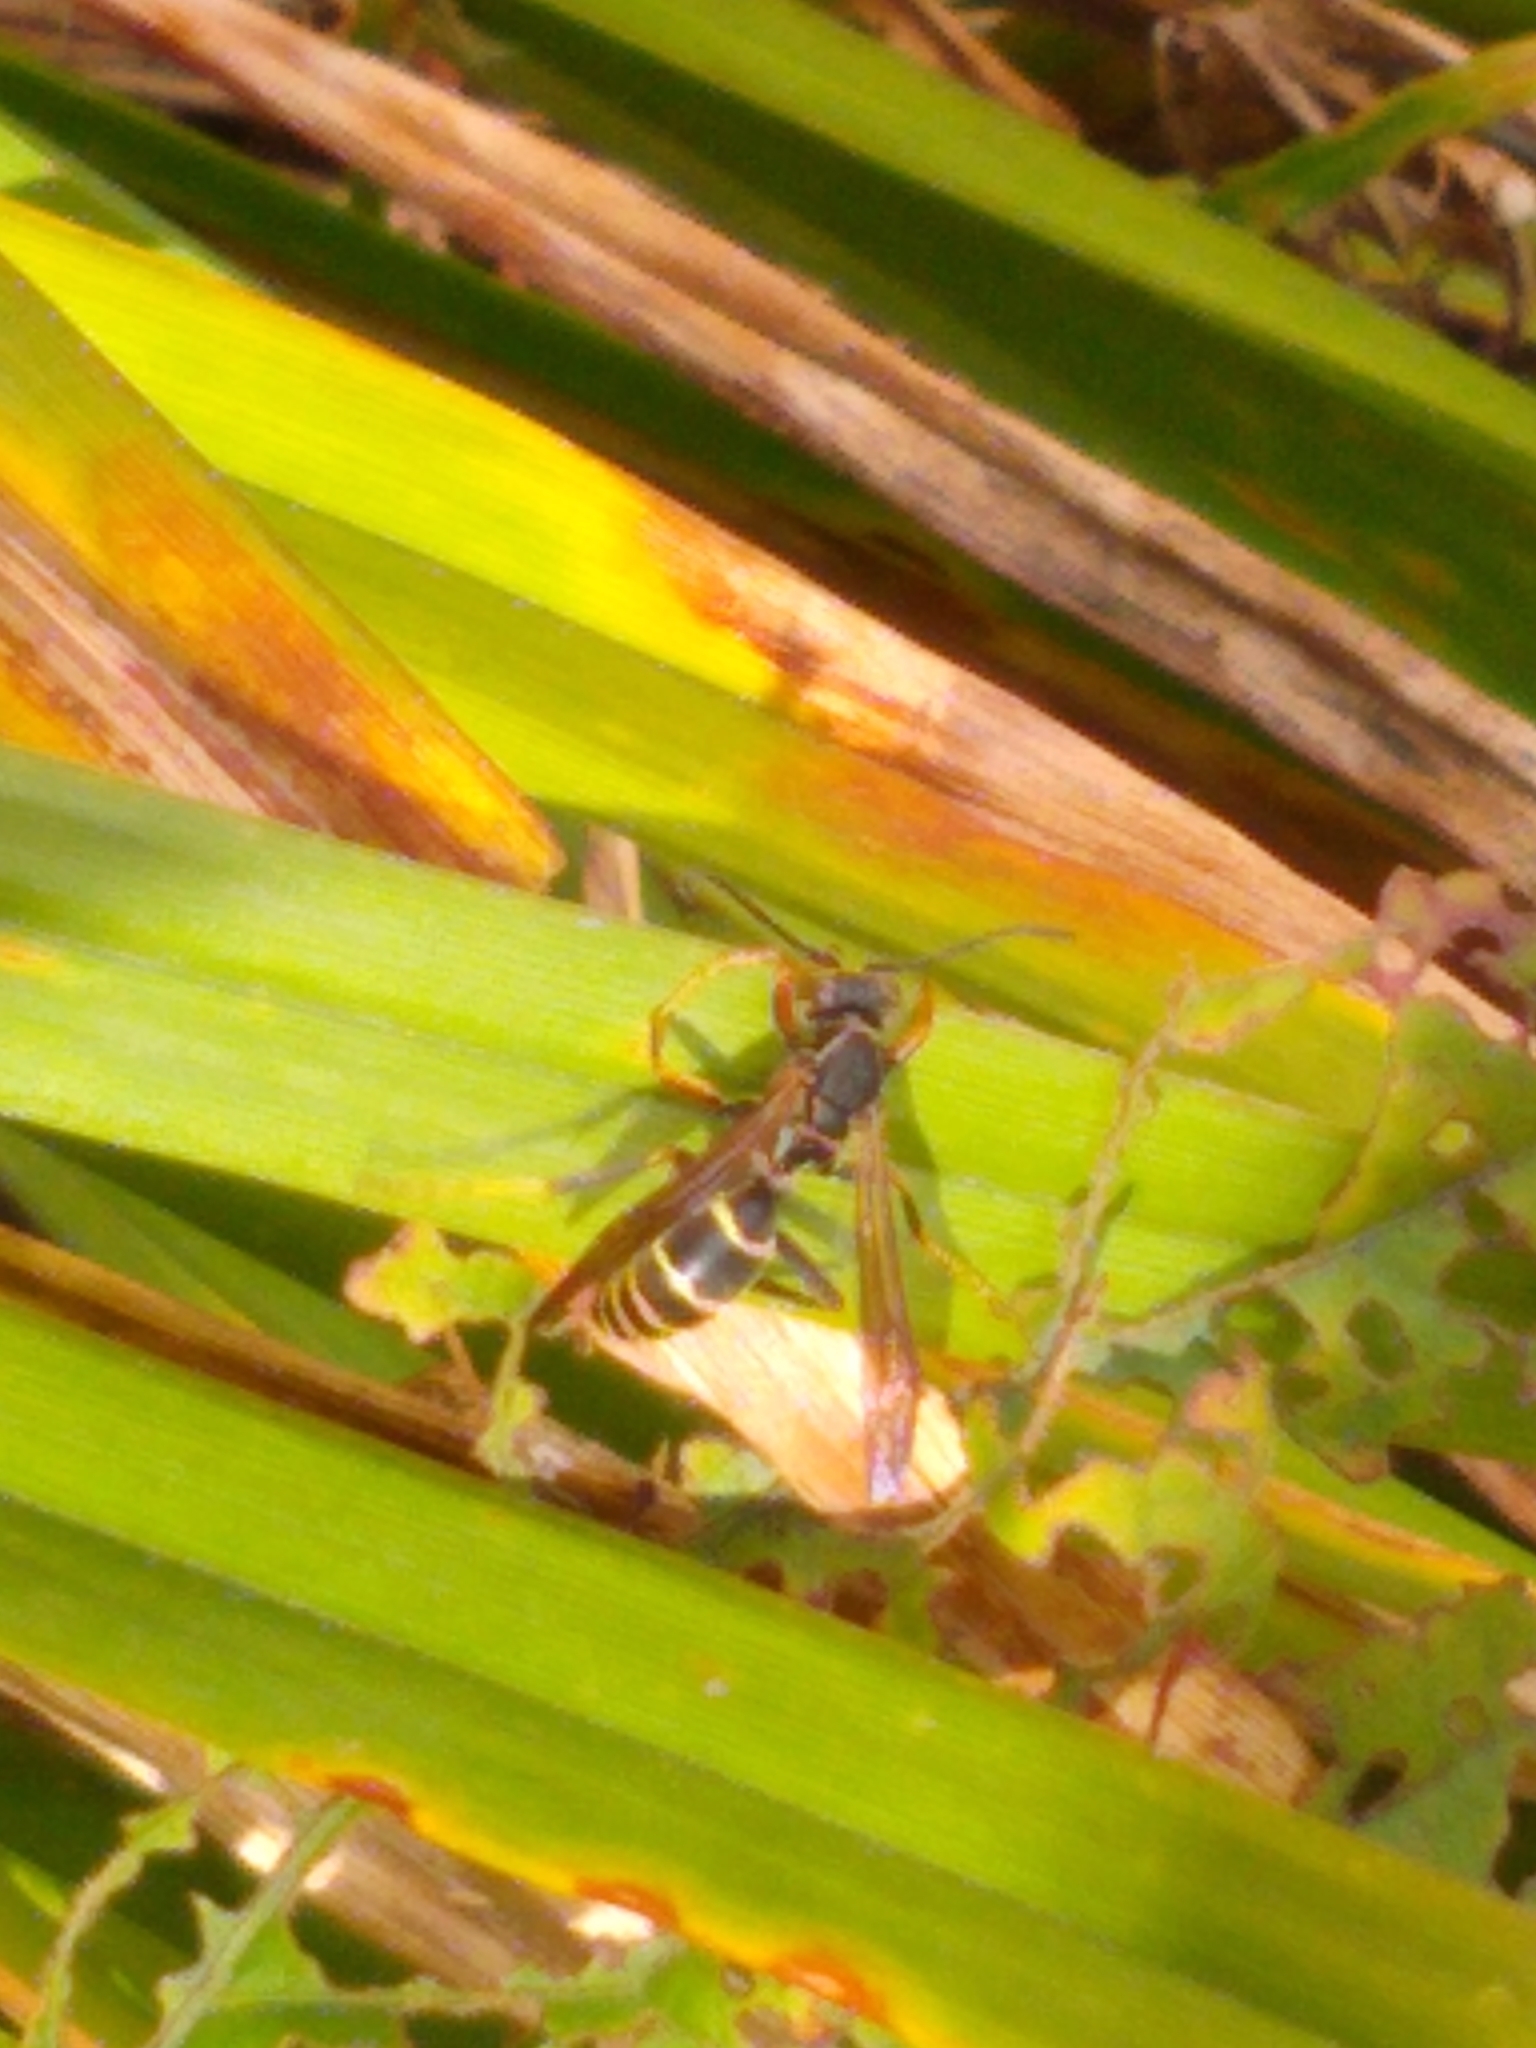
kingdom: Animalia
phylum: Arthropoda
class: Insecta
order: Hymenoptera
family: Eumenidae
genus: Polistes
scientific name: Polistes fuscatus
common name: Dark paper wasp
